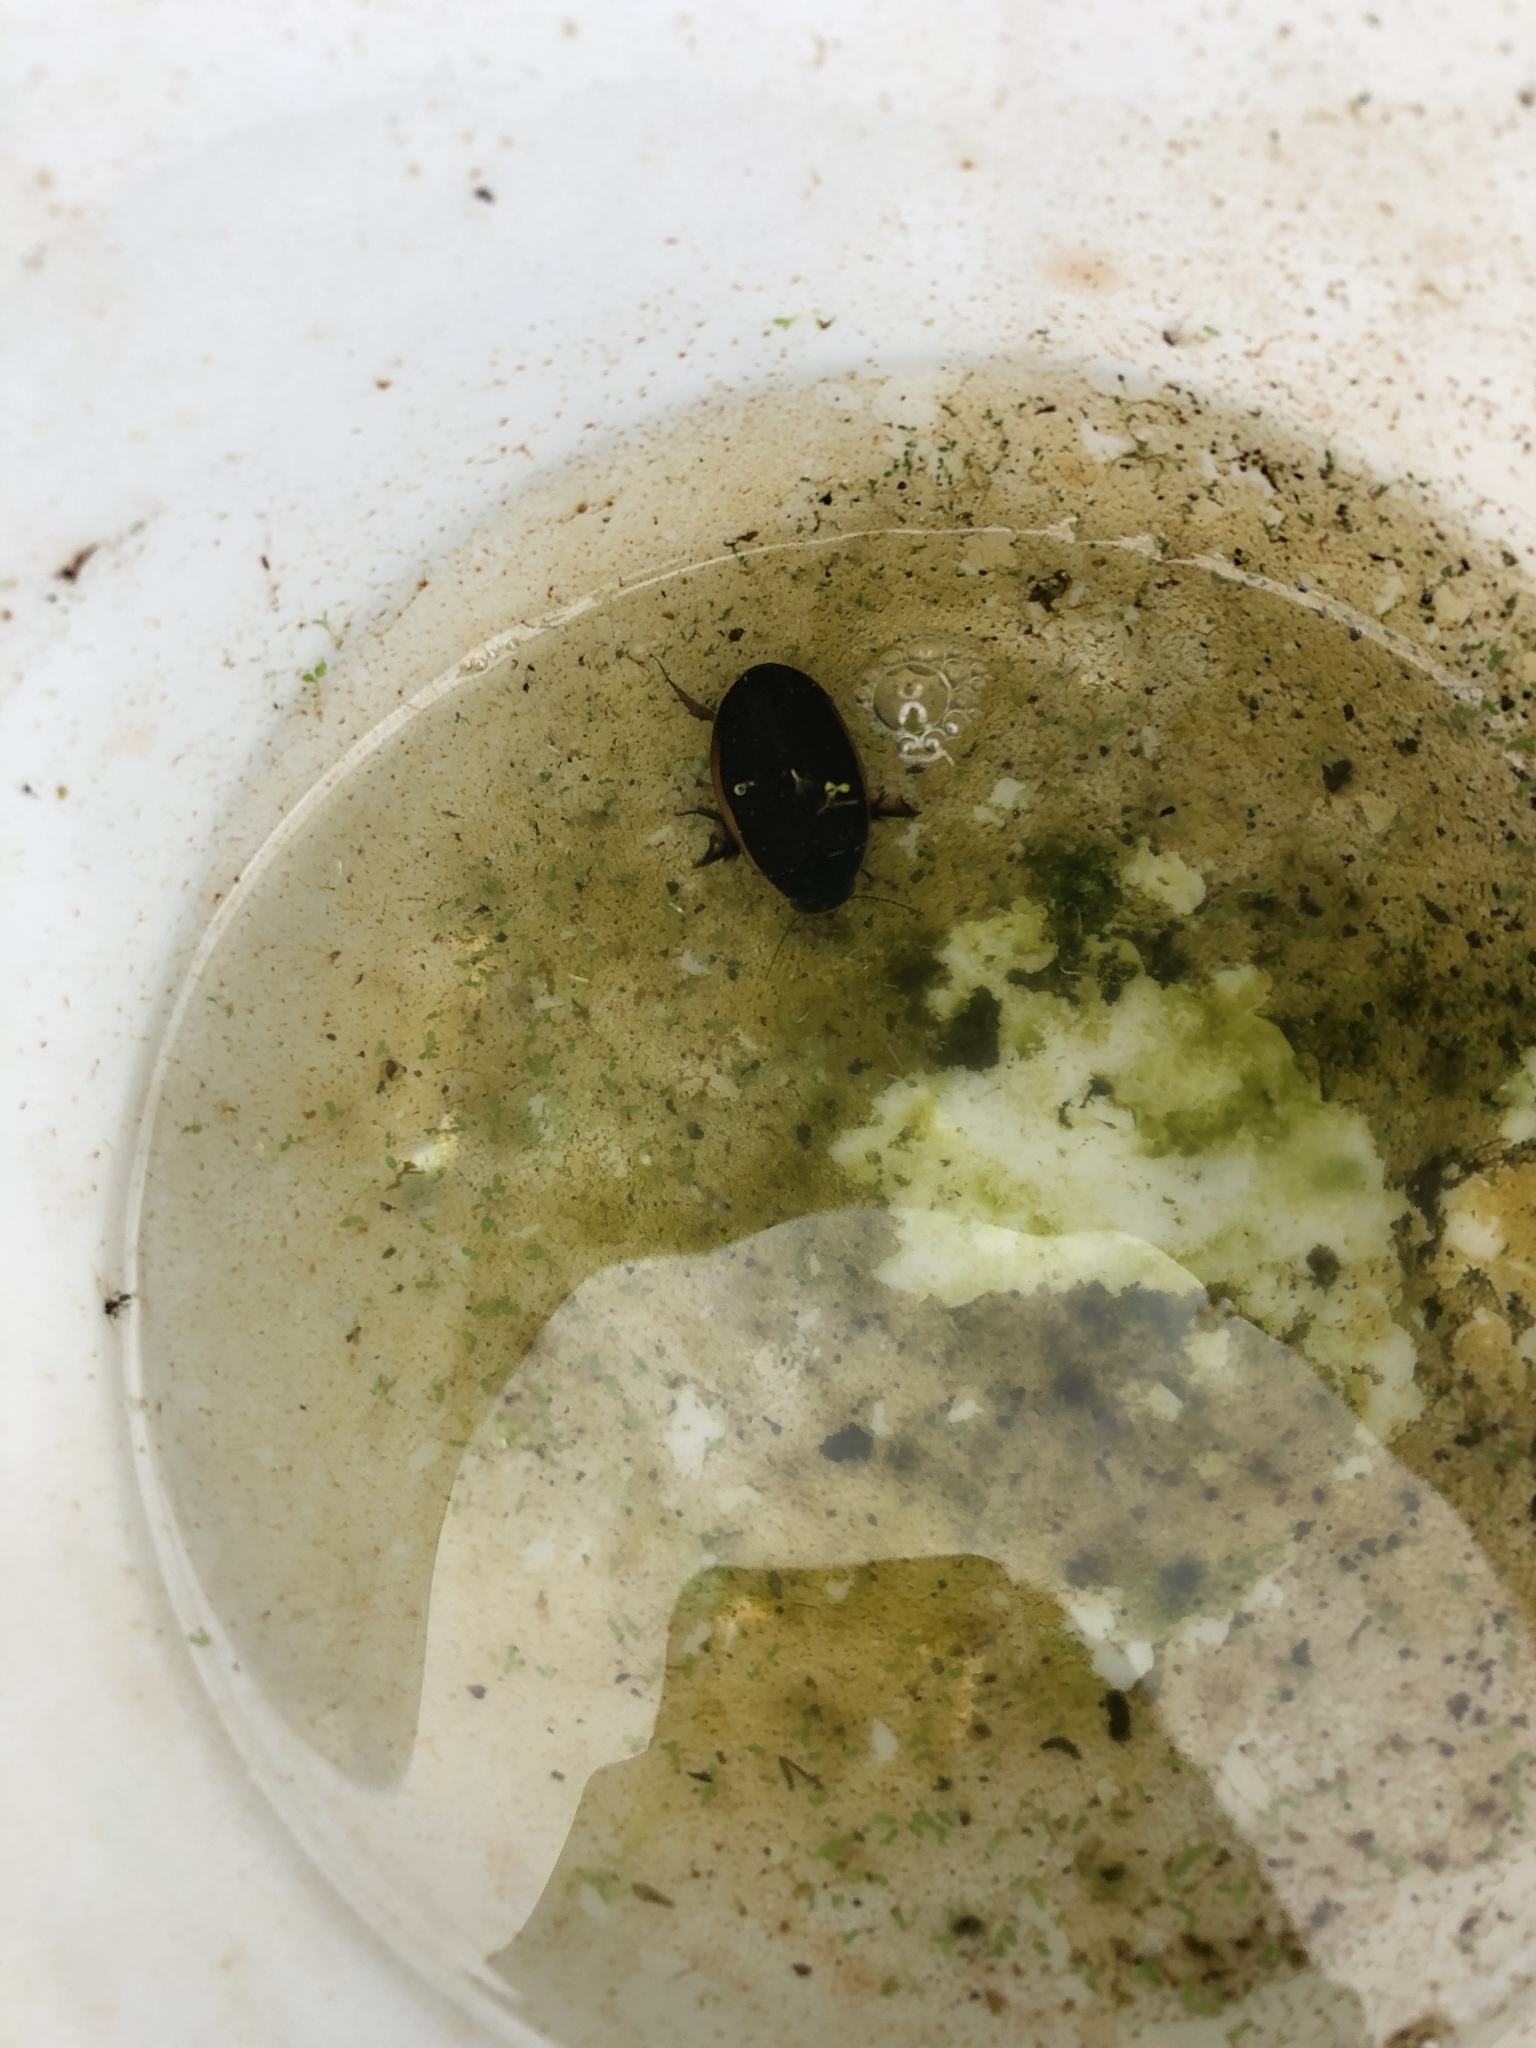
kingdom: Animalia
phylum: Arthropoda
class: Insecta
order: Coleoptera
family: Dytiscidae
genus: Dytiscus
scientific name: Dytiscus
